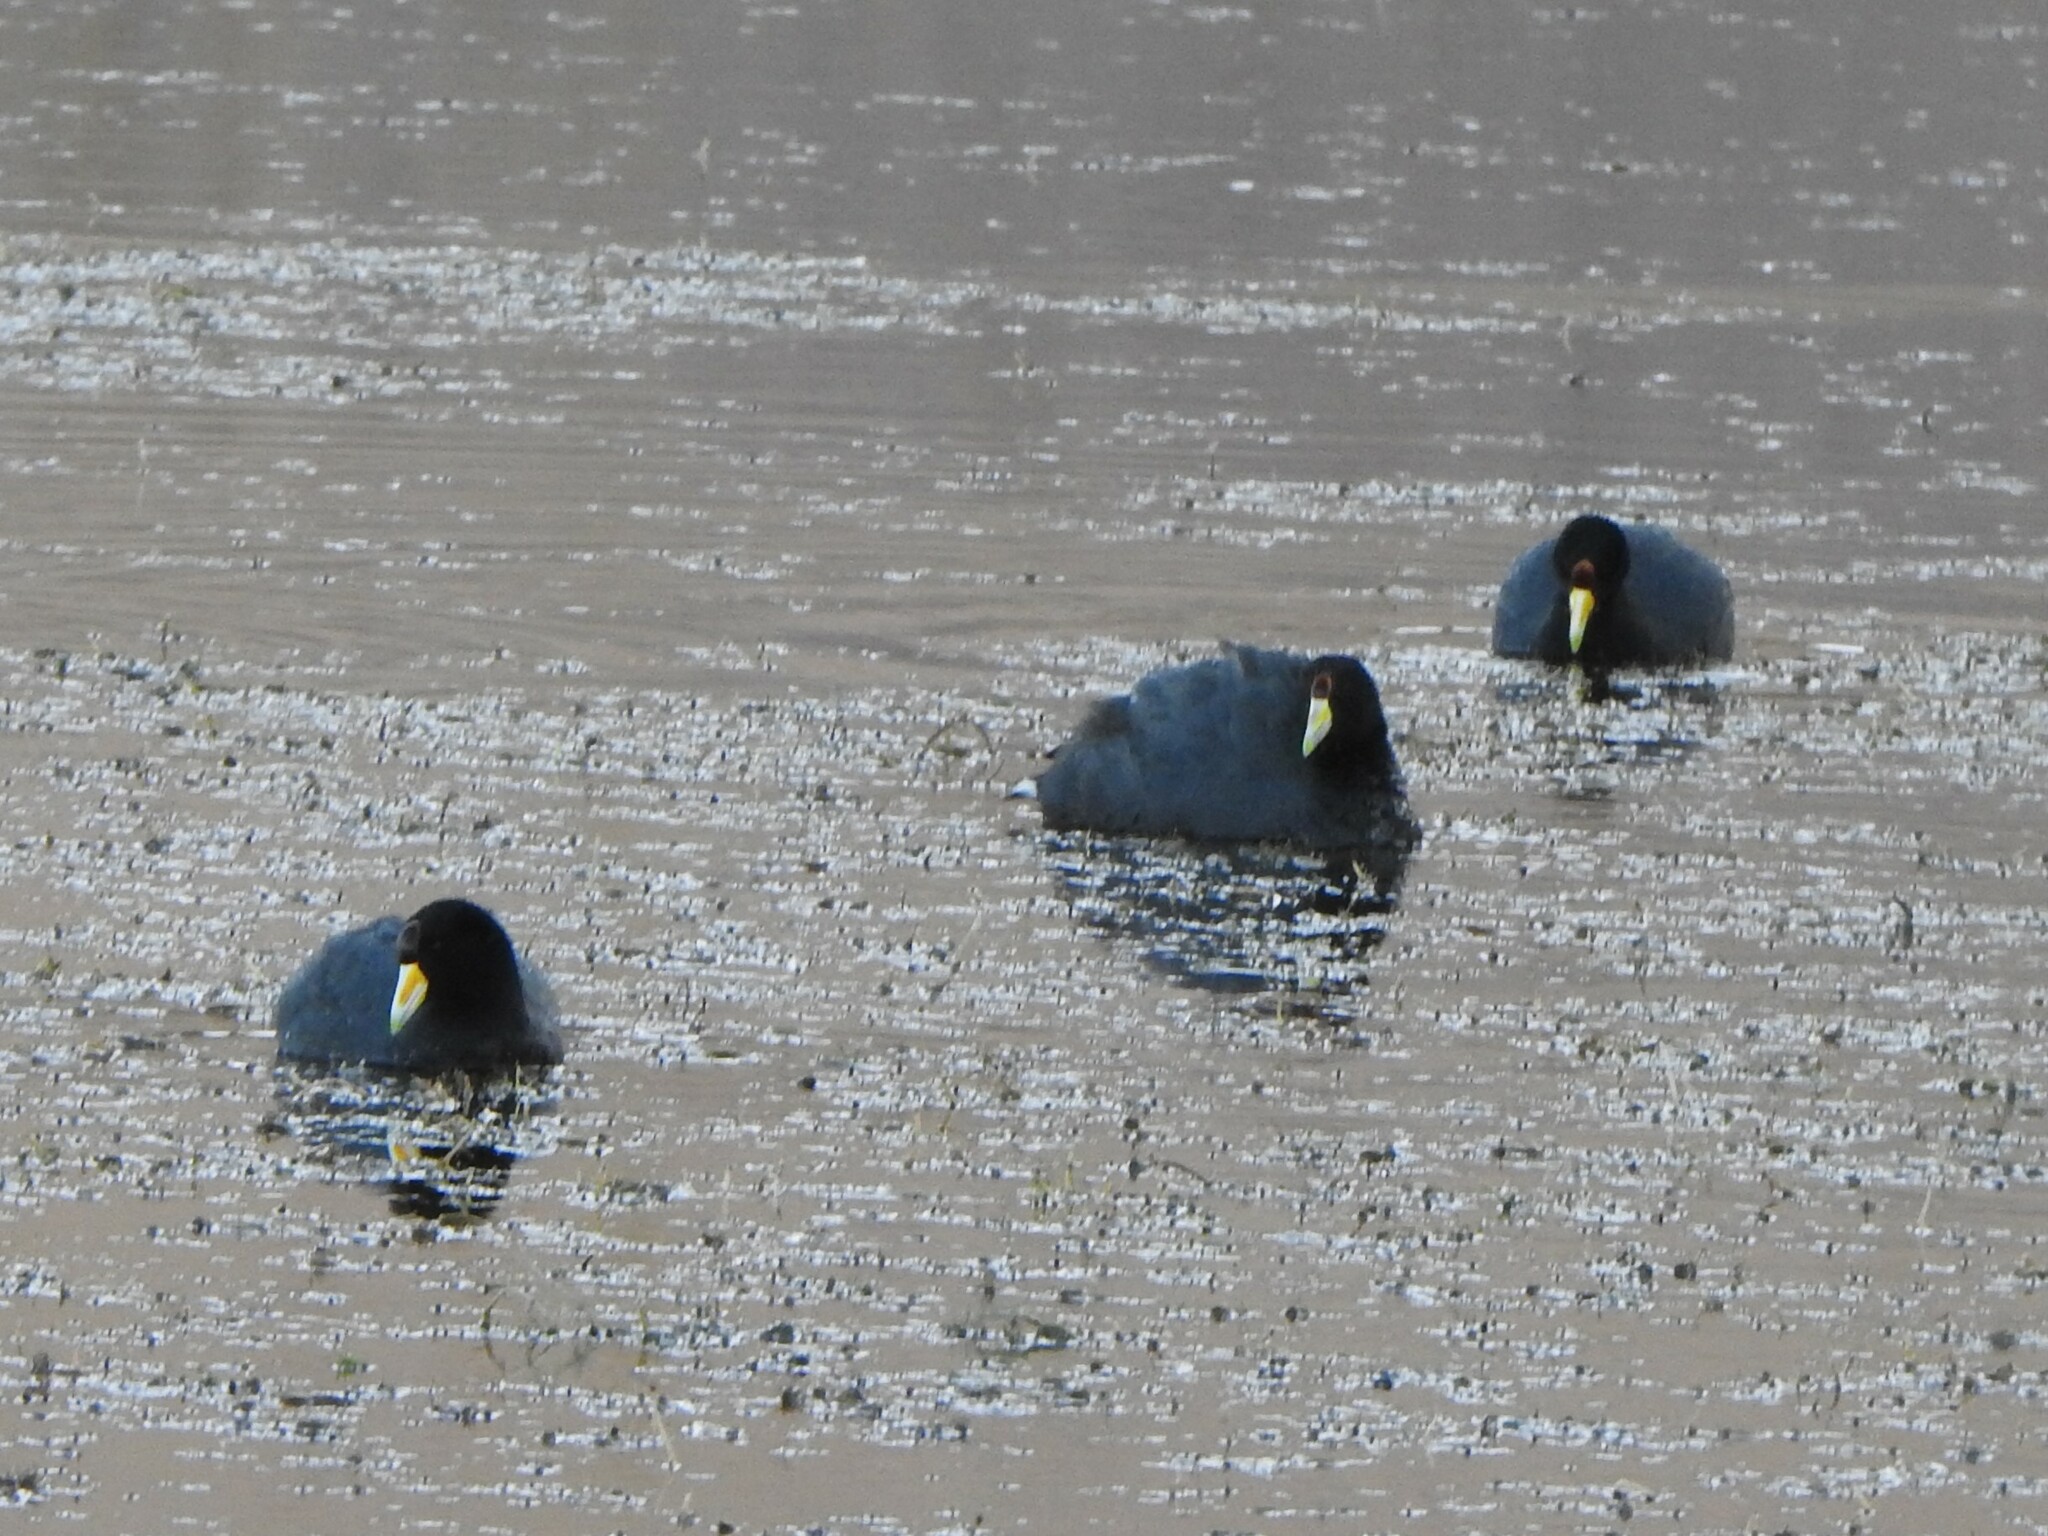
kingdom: Animalia
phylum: Chordata
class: Aves
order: Gruiformes
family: Rallidae
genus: Fulica
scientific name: Fulica ardesiaca
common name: Andean coot
